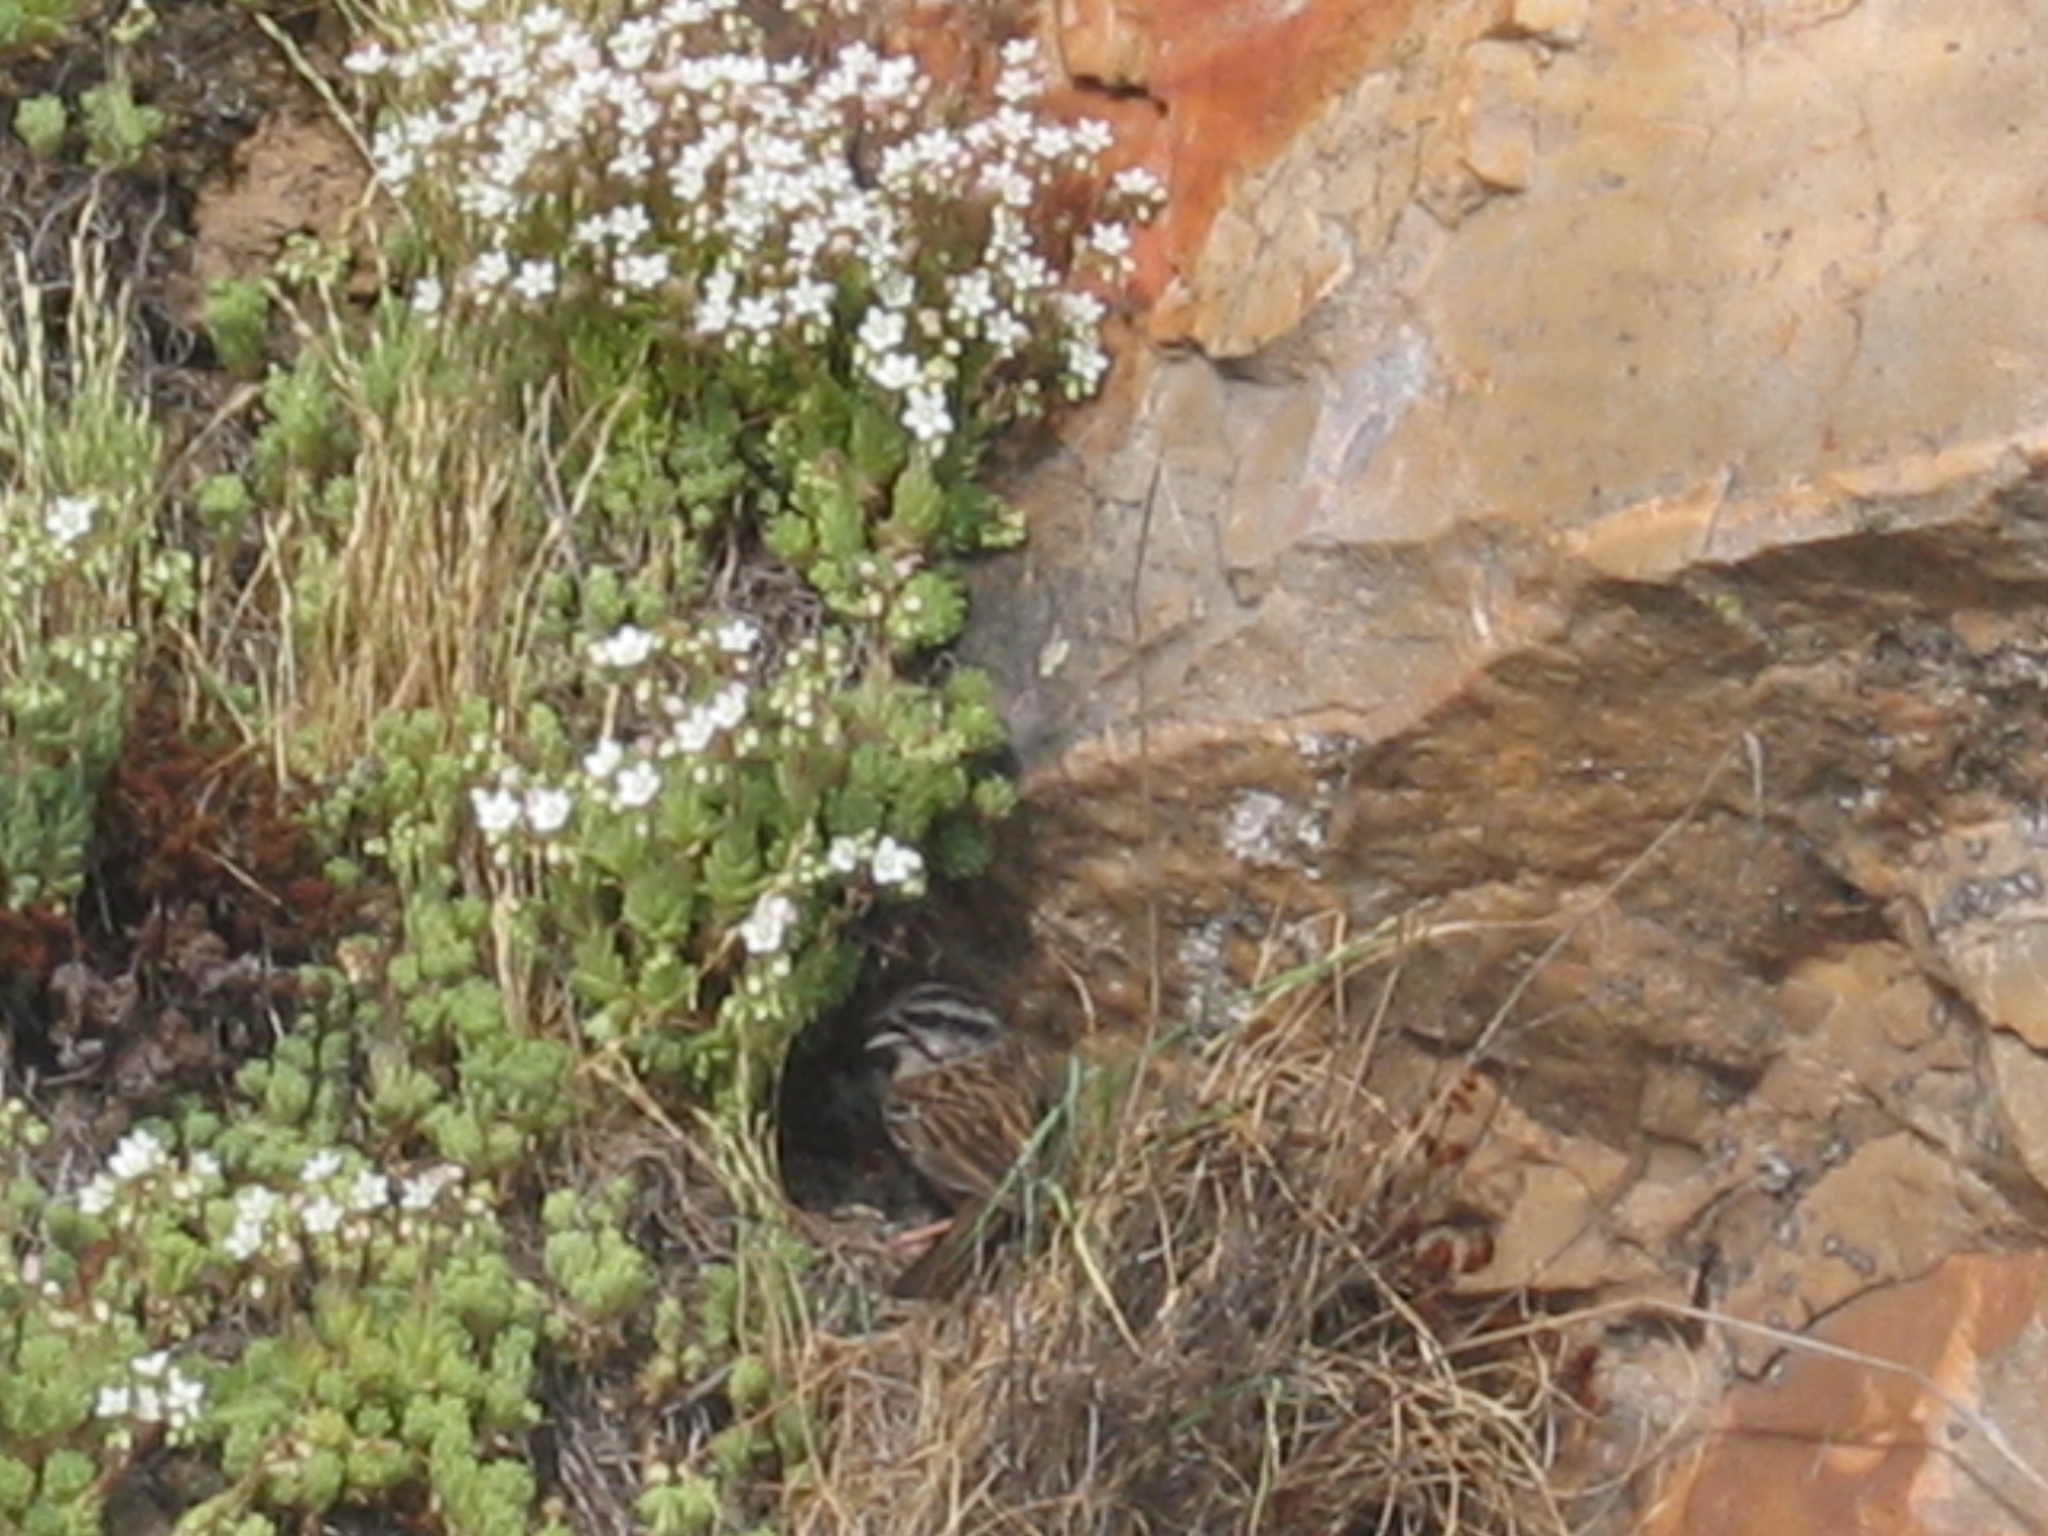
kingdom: Animalia
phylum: Chordata
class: Aves
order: Passeriformes
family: Emberizidae
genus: Emberiza
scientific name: Emberiza cia
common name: Rock bunting
